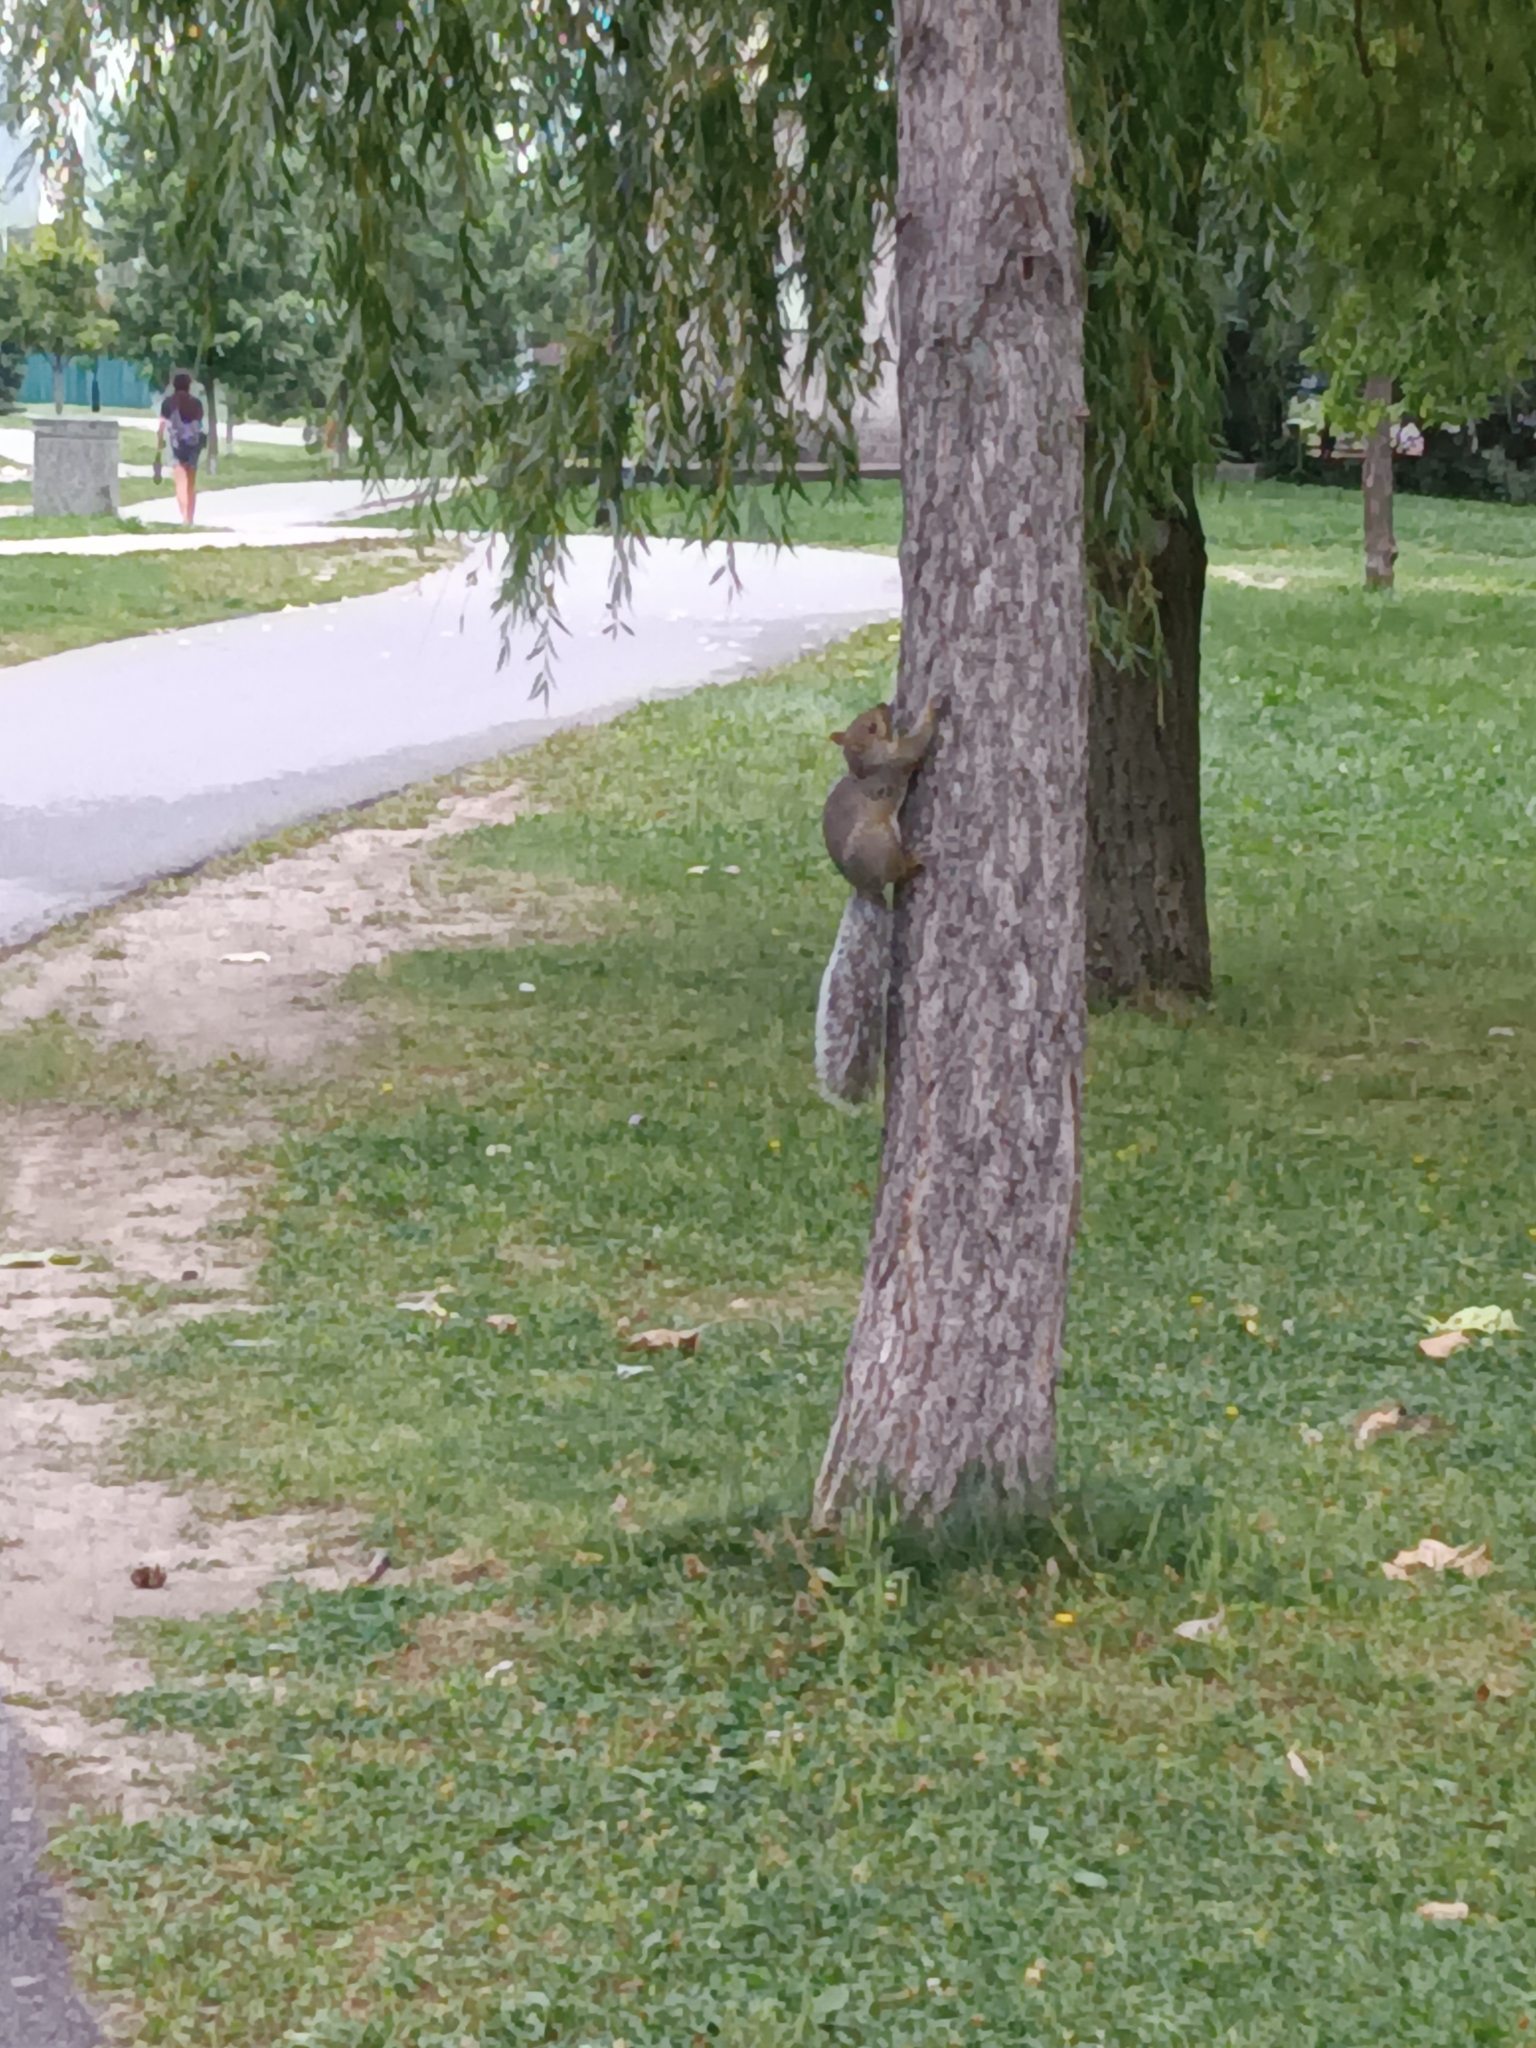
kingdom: Animalia
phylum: Chordata
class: Mammalia
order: Rodentia
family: Sciuridae
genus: Sciurus
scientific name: Sciurus carolinensis
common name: Eastern gray squirrel
